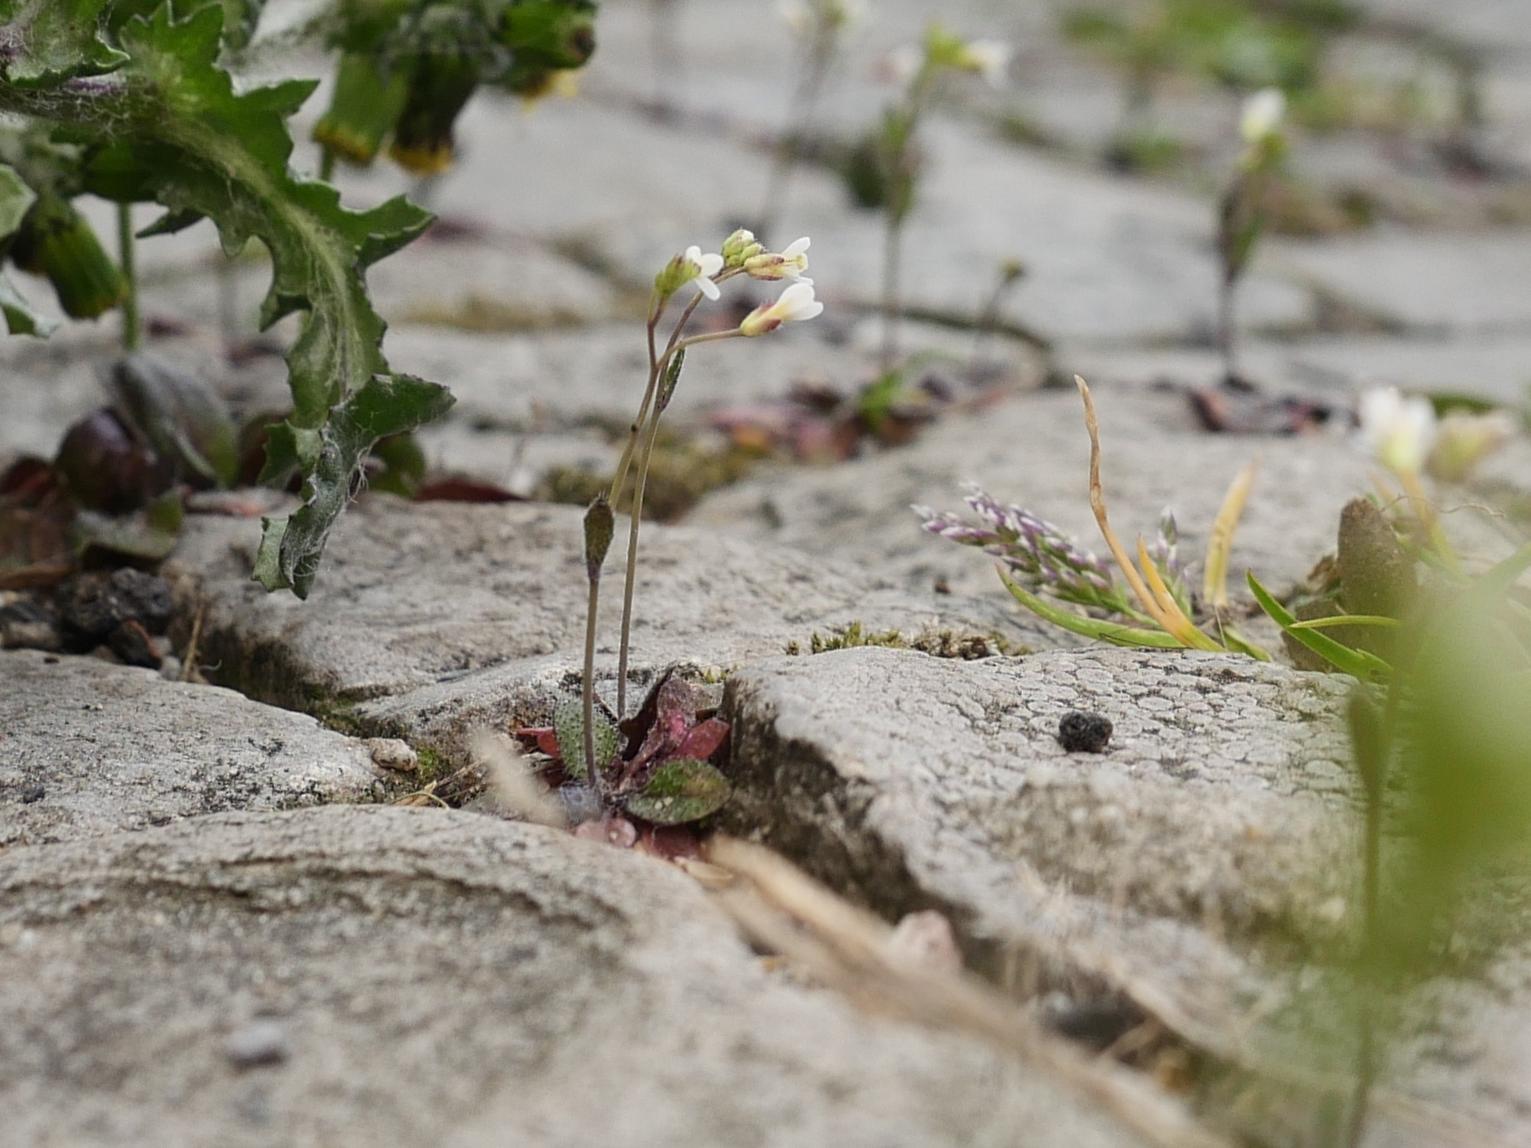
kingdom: Plantae
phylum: Tracheophyta
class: Magnoliopsida
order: Brassicales
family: Brassicaceae
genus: Draba
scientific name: Draba verna
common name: Spring draba
